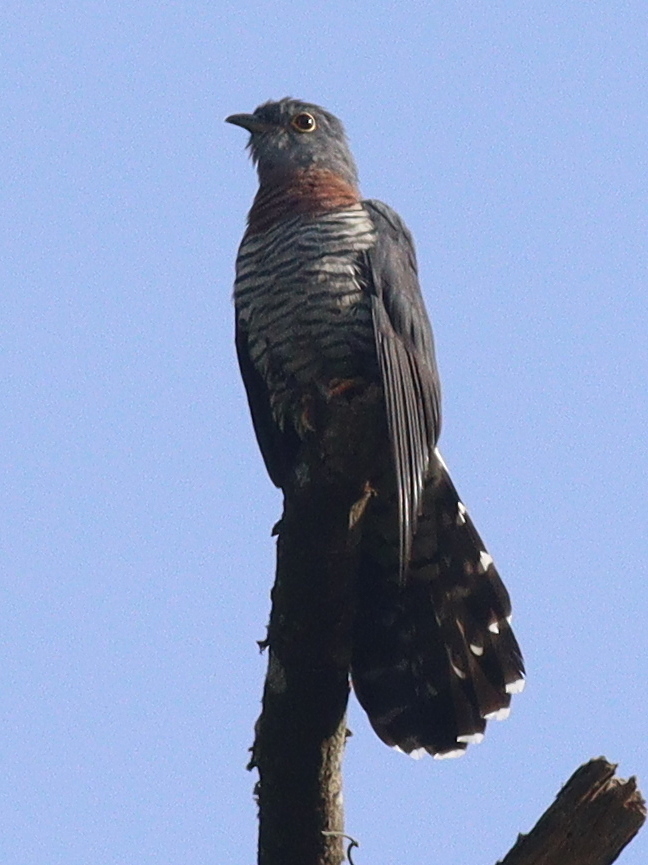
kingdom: Animalia
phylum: Chordata
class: Aves
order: Cuculiformes
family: Cuculidae
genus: Cuculus
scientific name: Cuculus solitarius
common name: Red-chested cuckoo
